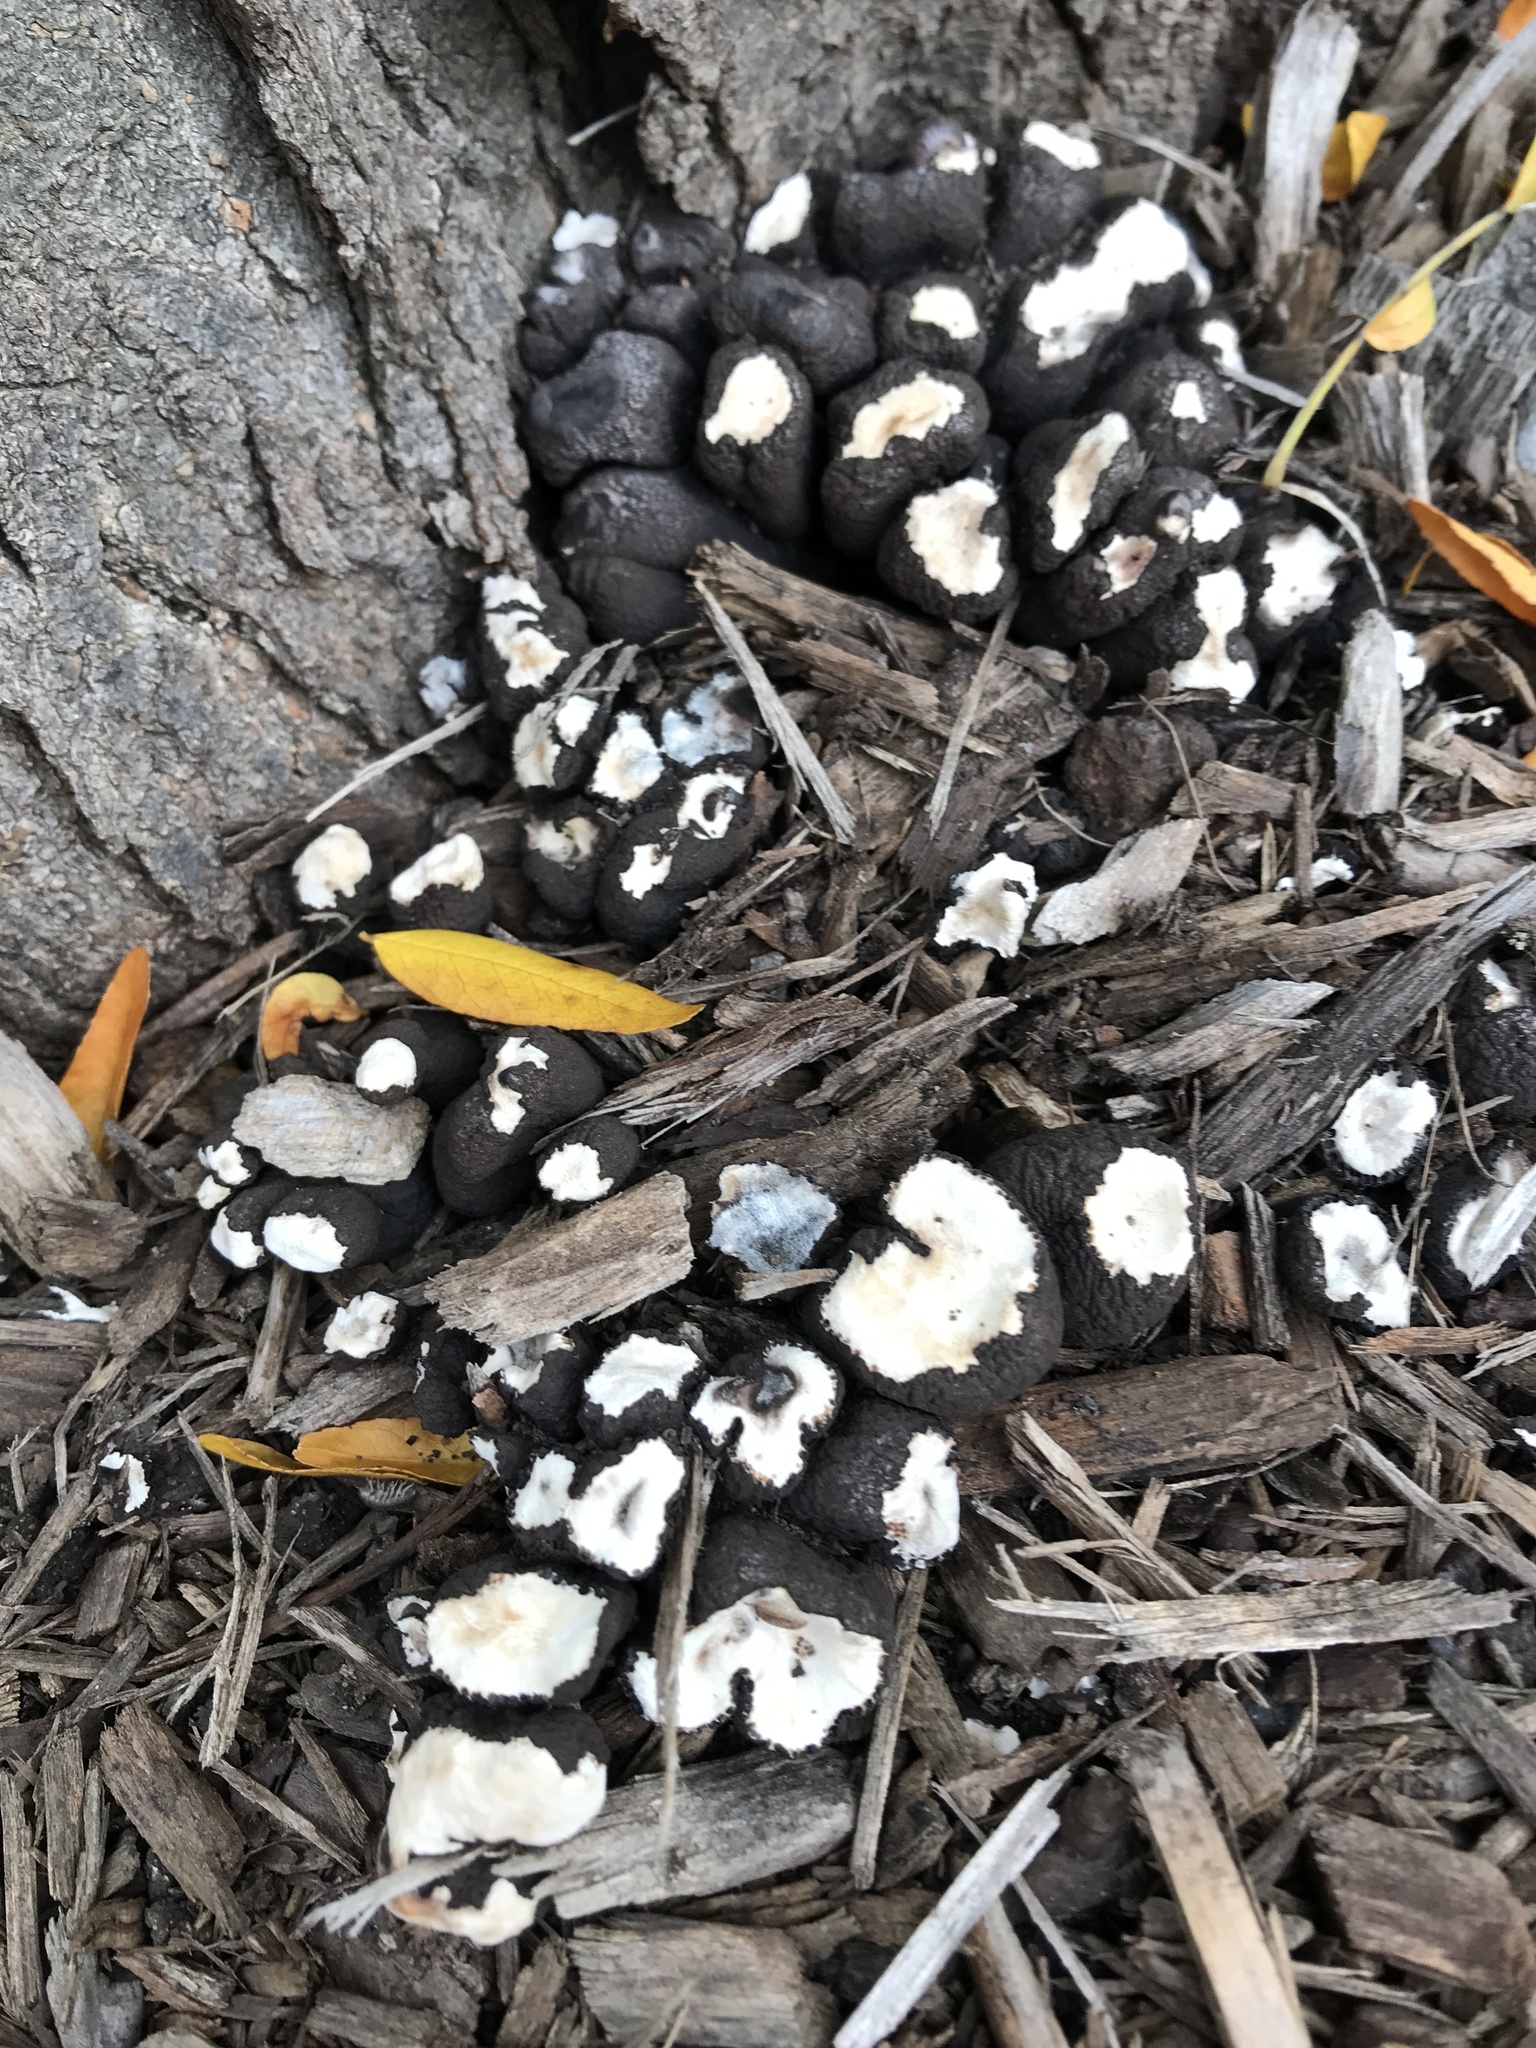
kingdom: Fungi
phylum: Ascomycota
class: Sordariomycetes
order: Xylariales
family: Xylariaceae
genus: Xylaria
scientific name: Xylaria polymorpha
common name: Dead man's fingers
